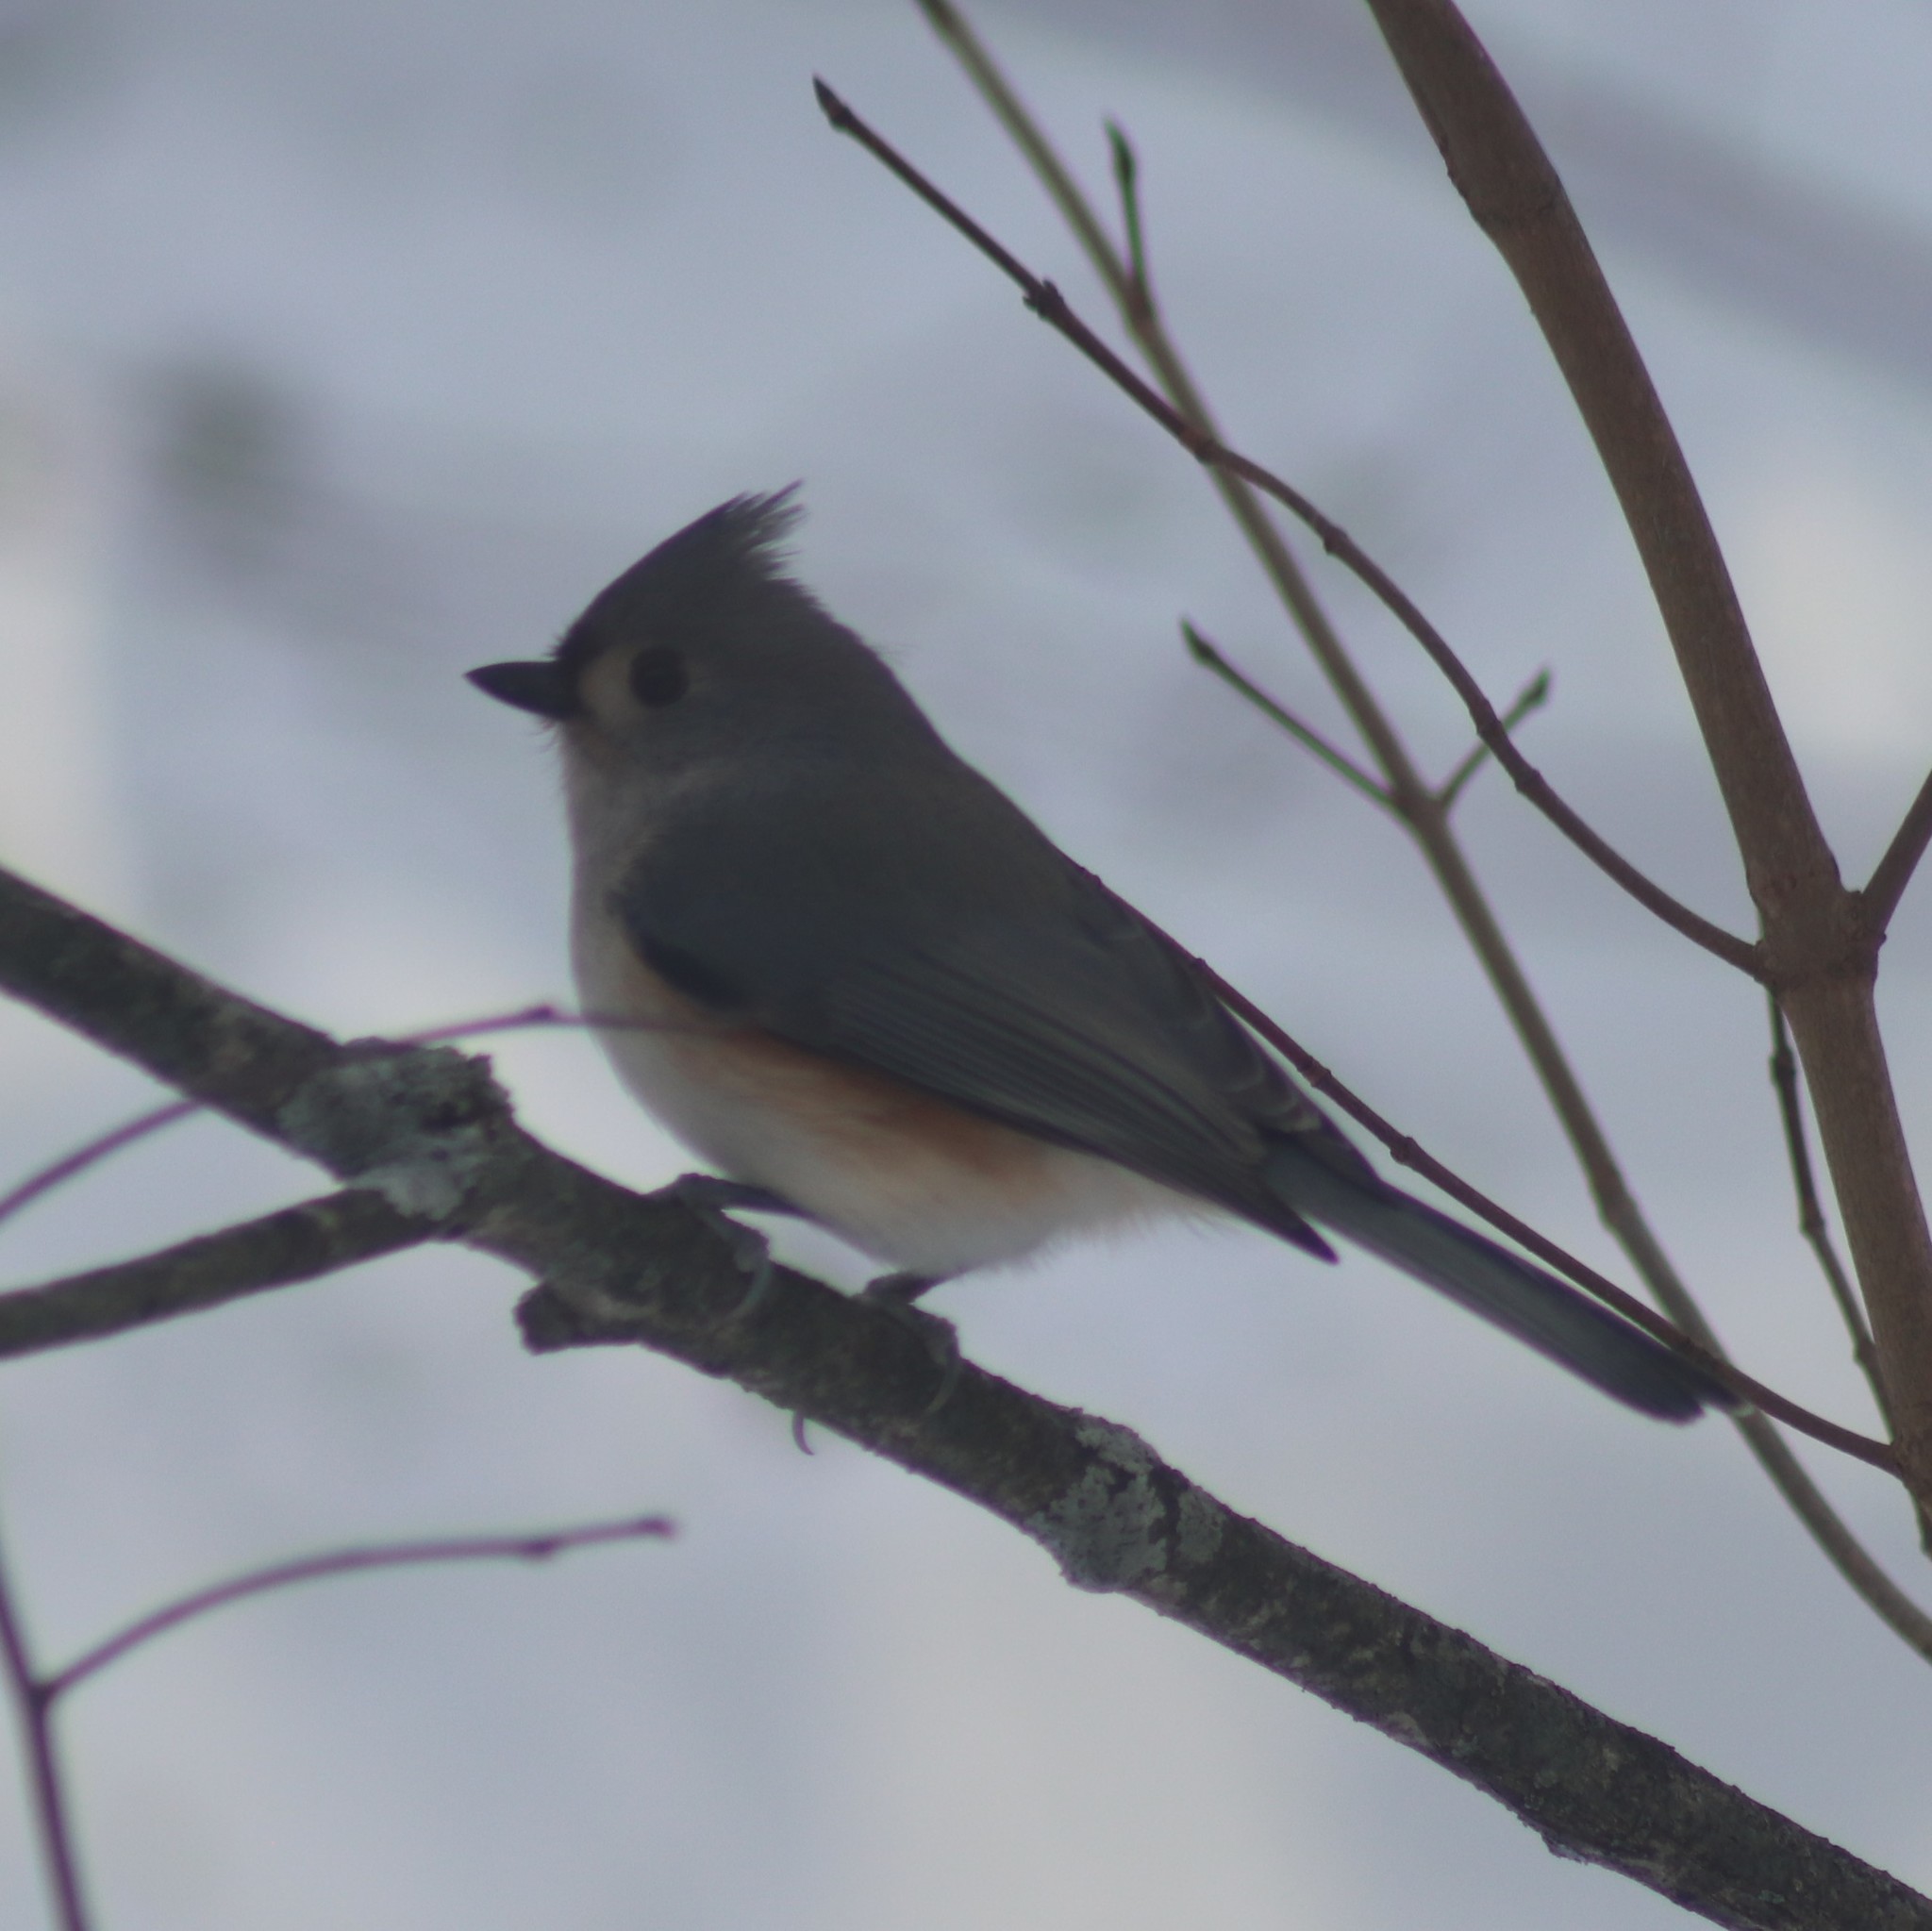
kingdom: Animalia
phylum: Chordata
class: Aves
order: Passeriformes
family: Paridae
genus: Baeolophus
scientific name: Baeolophus bicolor
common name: Tufted titmouse
